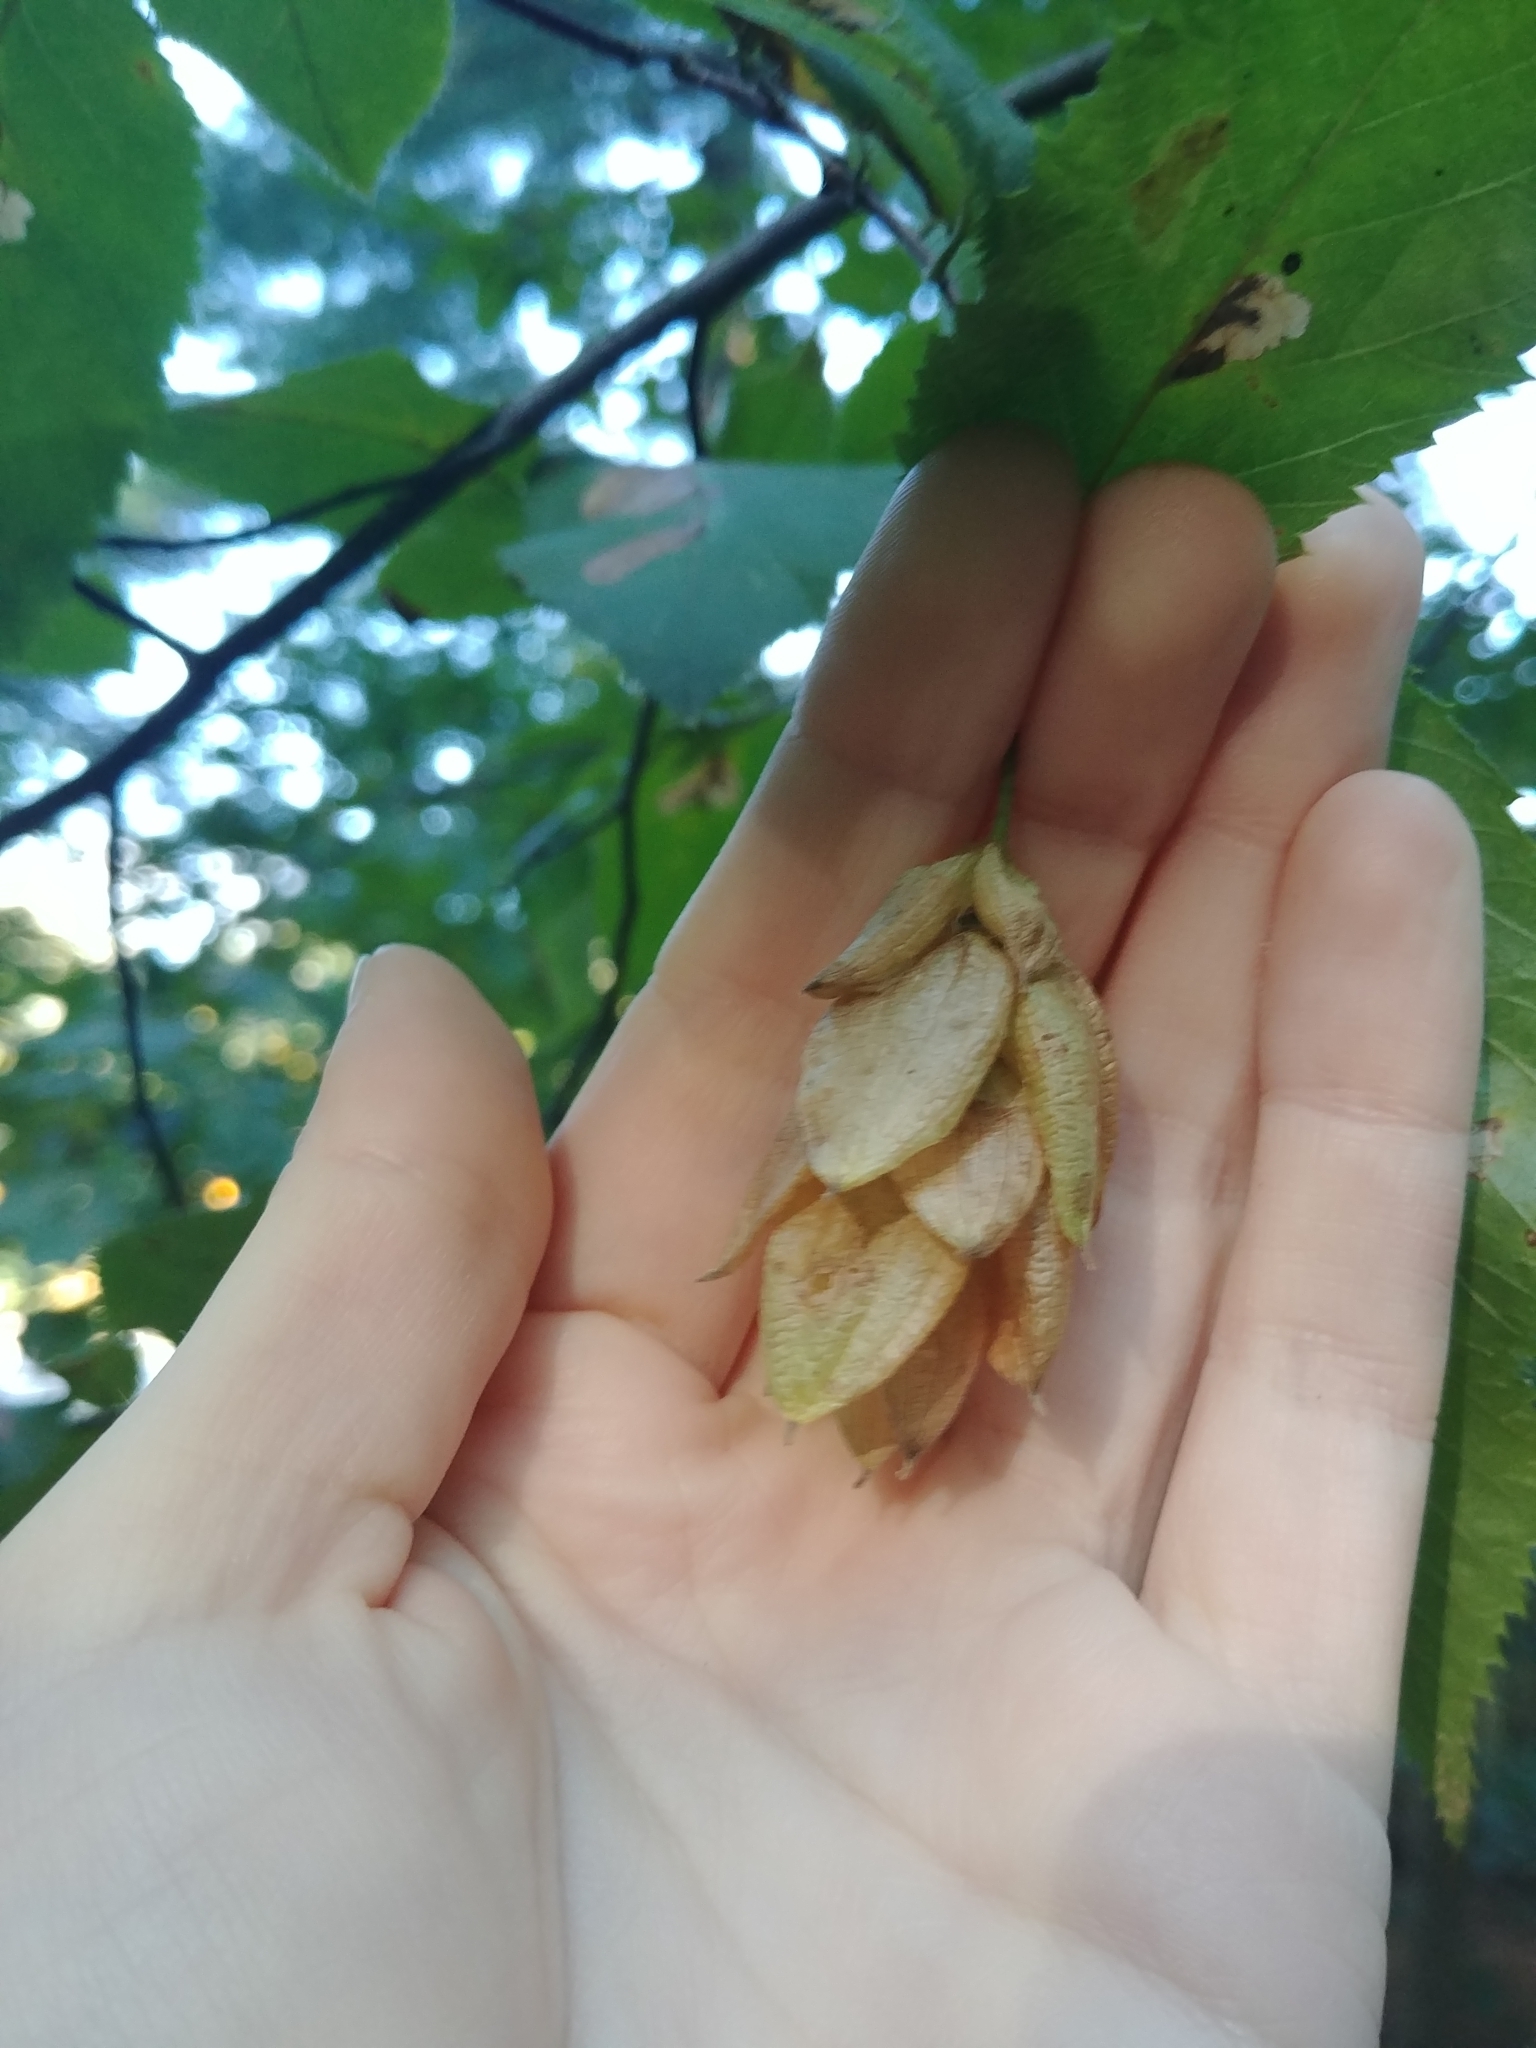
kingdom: Plantae
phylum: Tracheophyta
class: Magnoliopsida
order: Fagales
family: Betulaceae
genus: Ostrya
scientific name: Ostrya virginiana
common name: Ironwood
